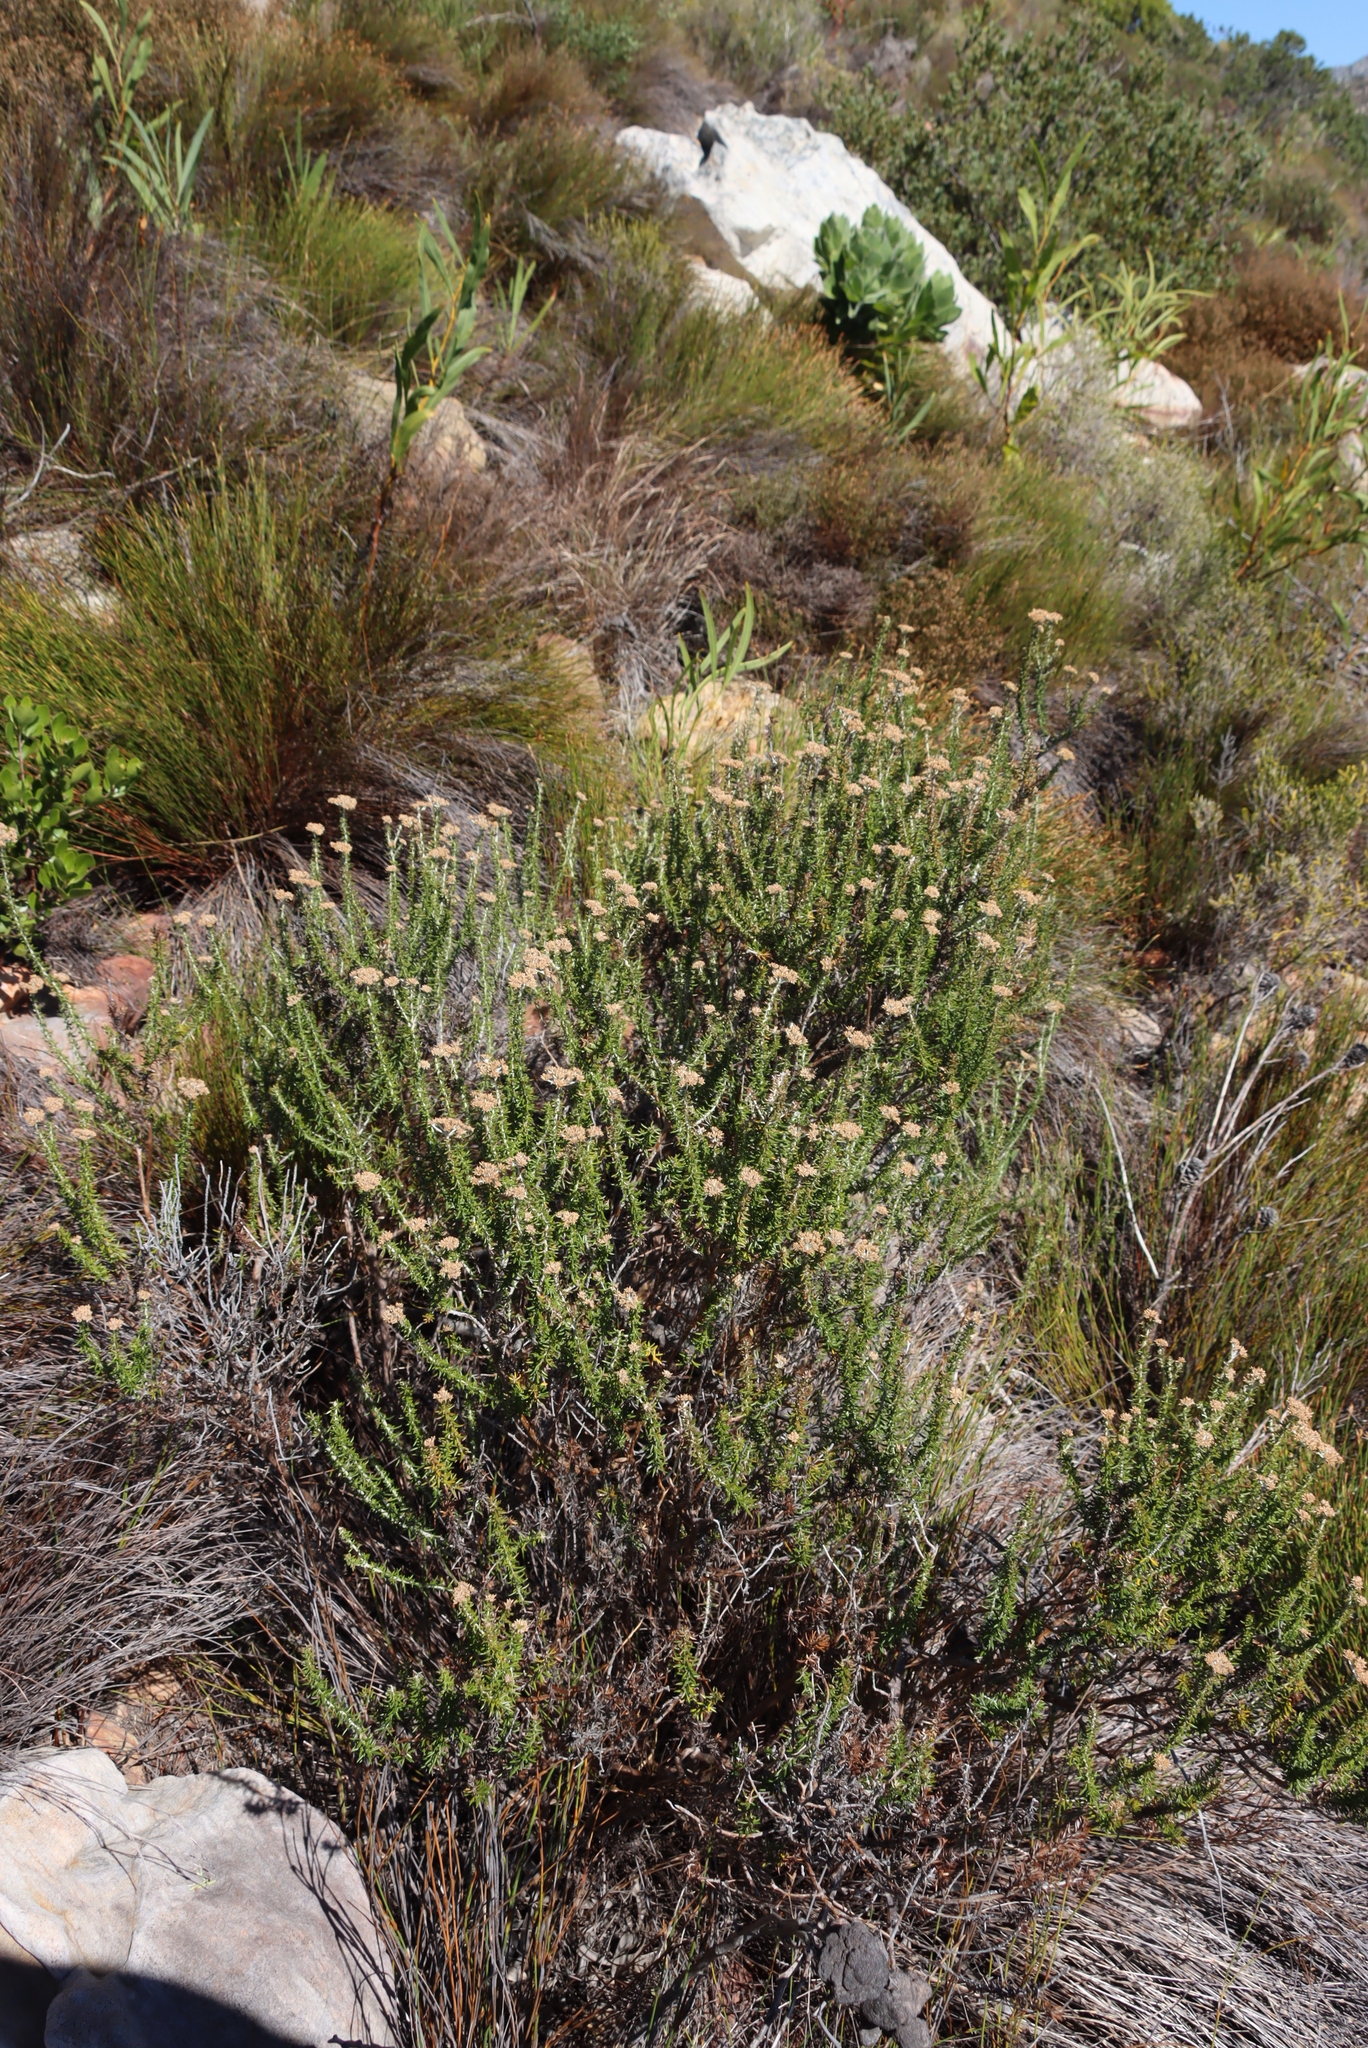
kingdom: Plantae
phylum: Tracheophyta
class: Magnoliopsida
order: Asterales
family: Asteraceae
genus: Metalasia
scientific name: Metalasia densa
